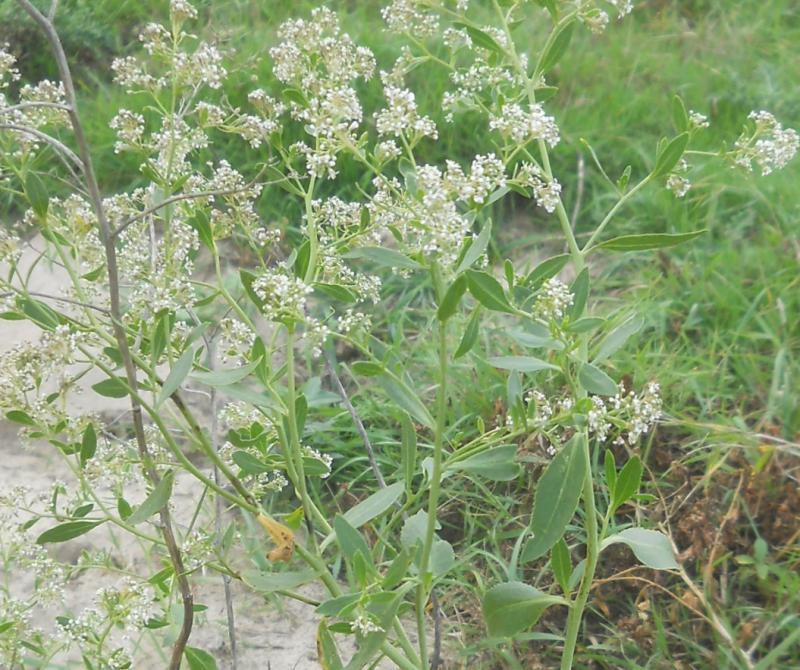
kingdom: Plantae
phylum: Tracheophyta
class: Magnoliopsida
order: Brassicales
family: Brassicaceae
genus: Lepidium
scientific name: Lepidium latifolium
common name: Dittander
